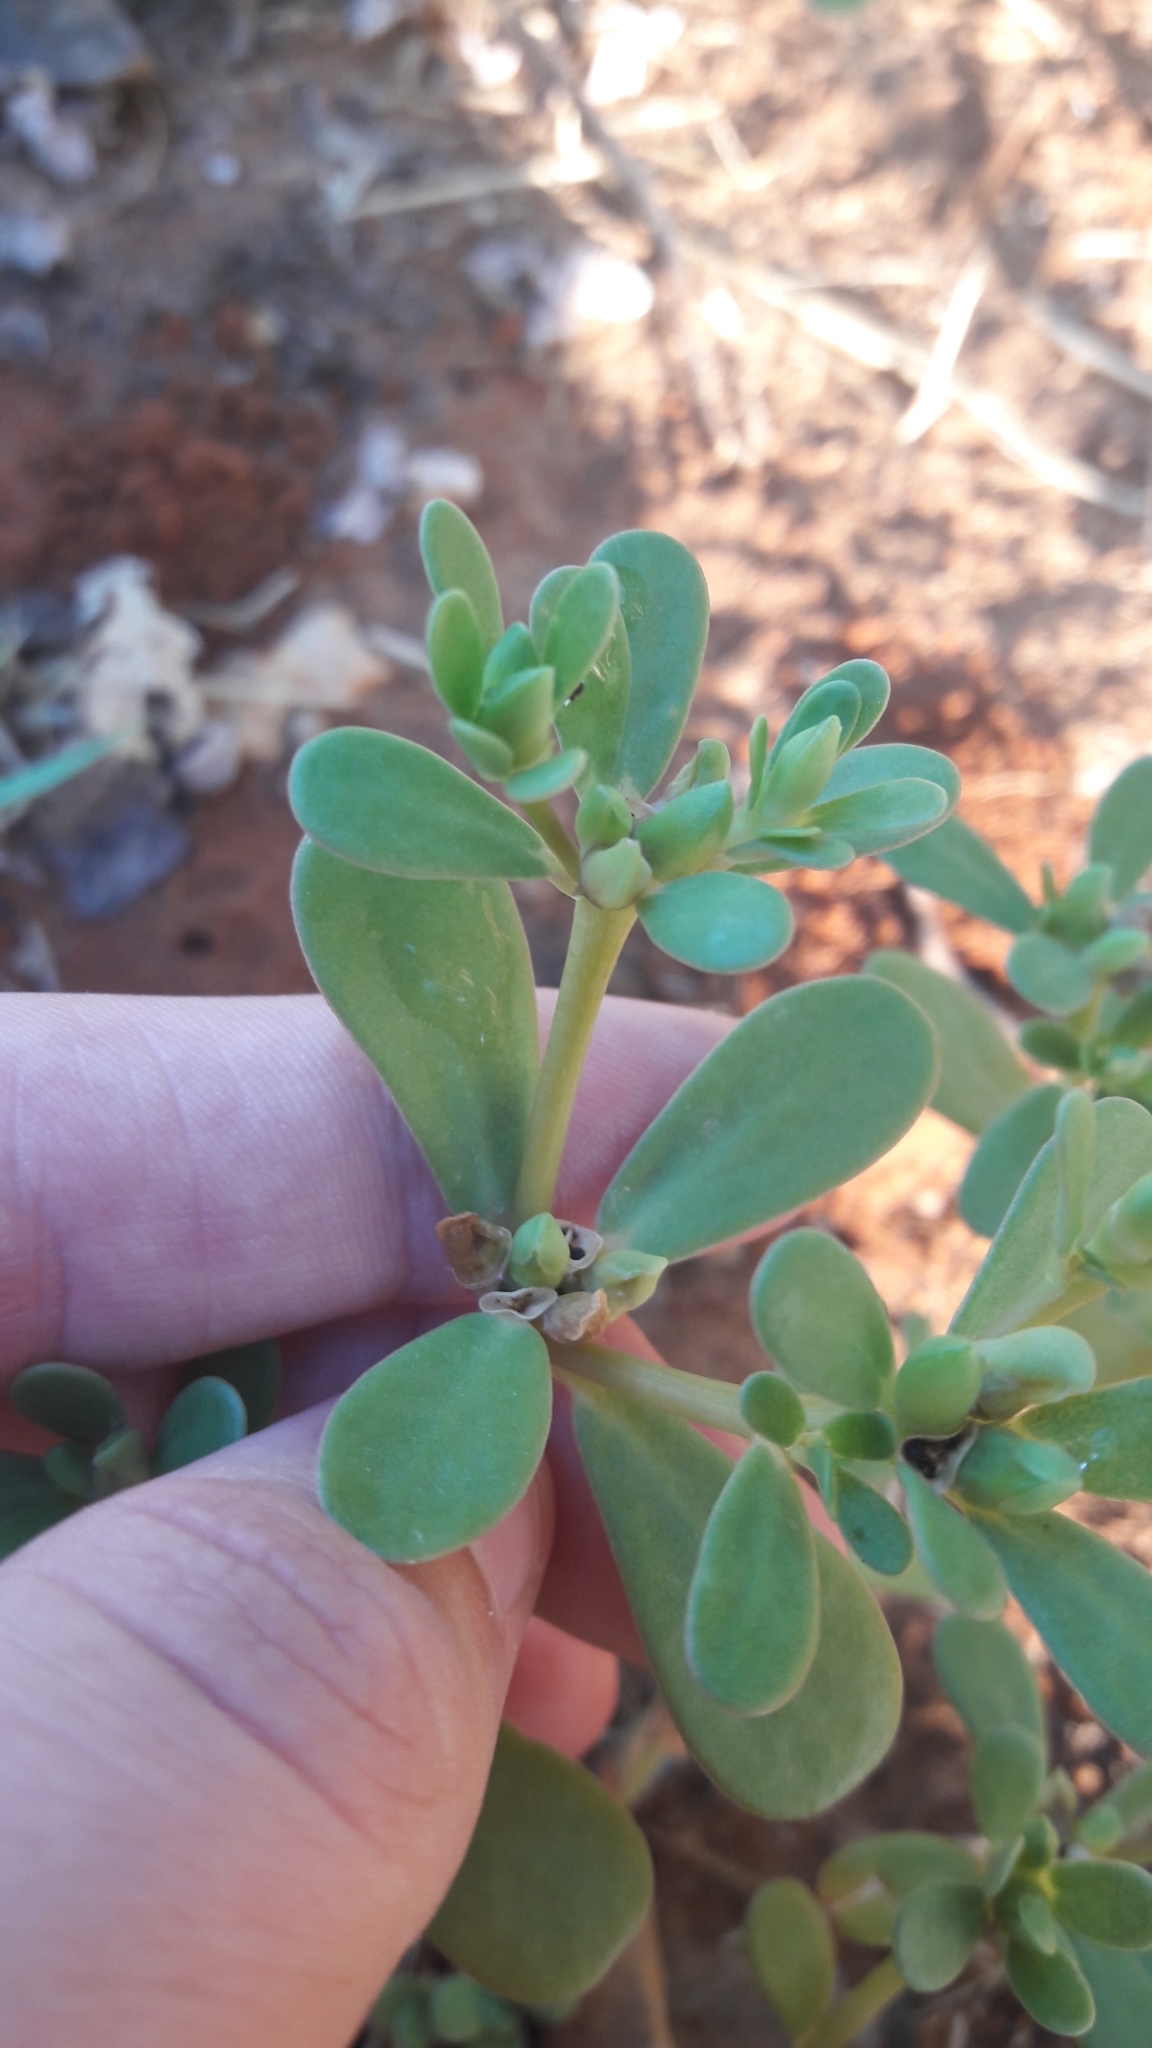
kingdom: Plantae
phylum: Tracheophyta
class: Magnoliopsida
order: Caryophyllales
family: Portulacaceae
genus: Portulaca
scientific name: Portulaca oleracea
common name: Common purslane
